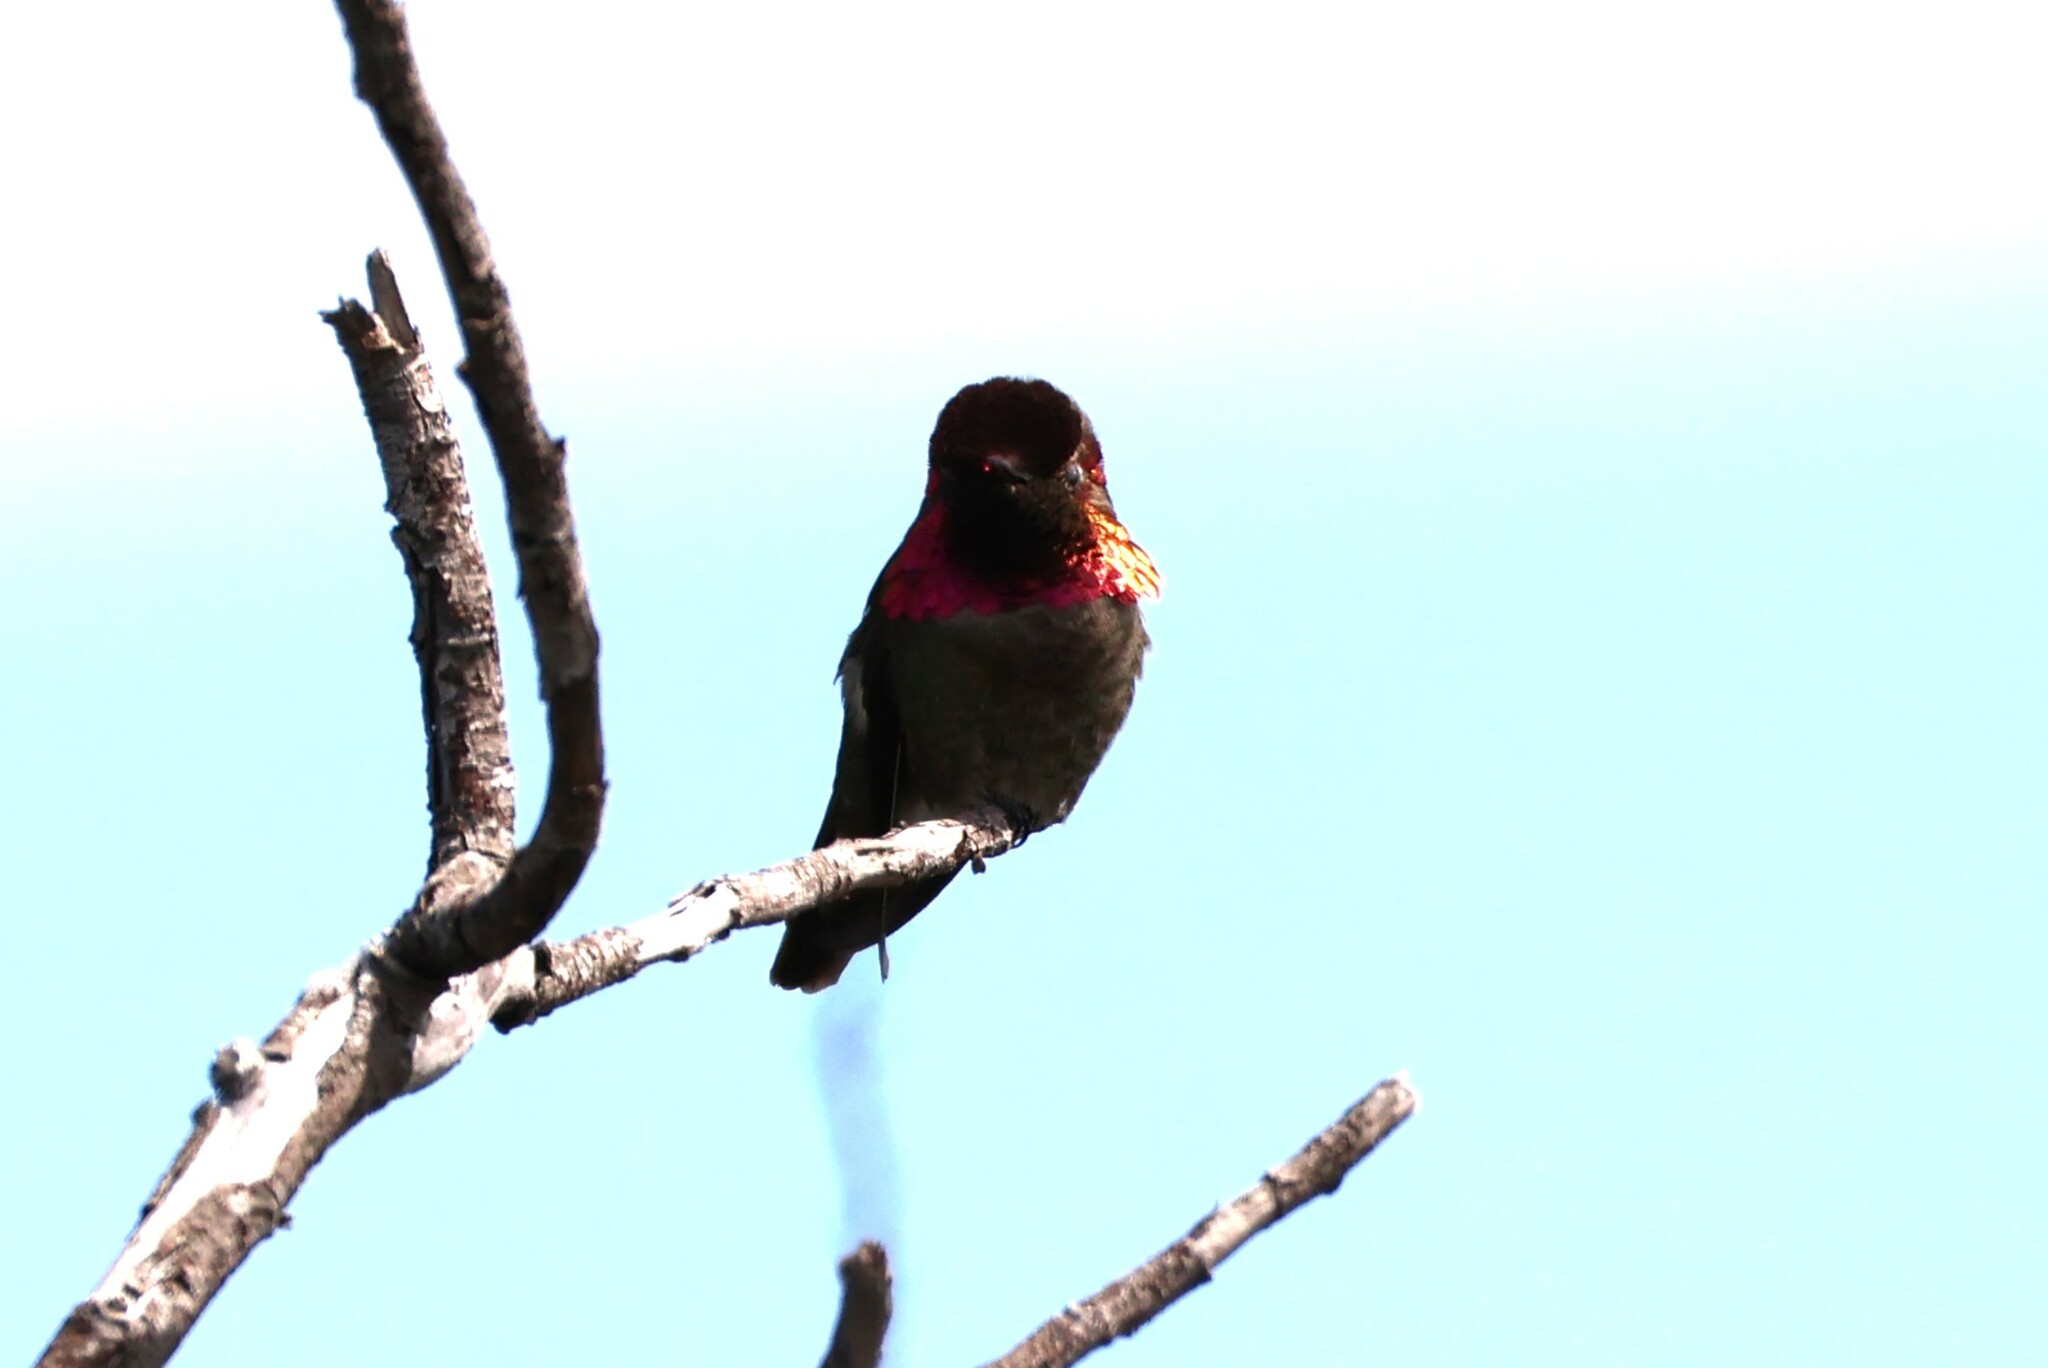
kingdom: Animalia
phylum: Chordata
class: Aves
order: Apodiformes
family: Trochilidae
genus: Calypte
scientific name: Calypte anna
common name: Anna's hummingbird
